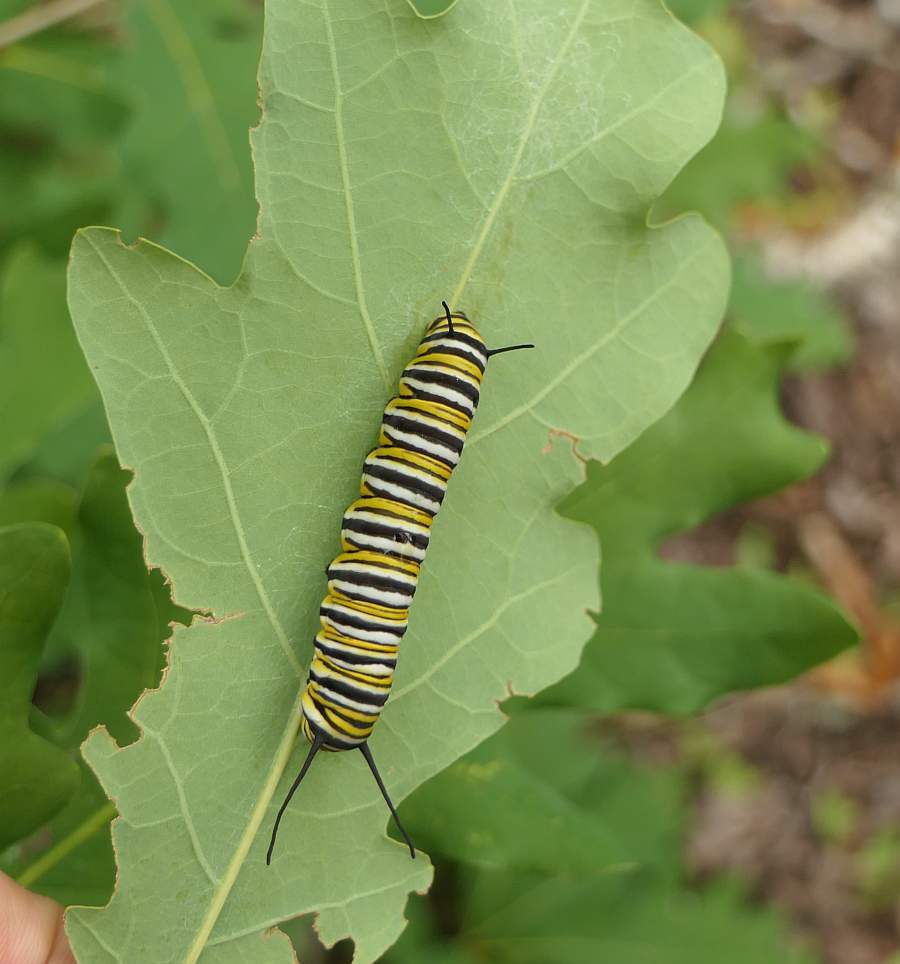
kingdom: Animalia
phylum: Arthropoda
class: Insecta
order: Lepidoptera
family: Nymphalidae
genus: Danaus
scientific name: Danaus plexippus
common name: Monarch
